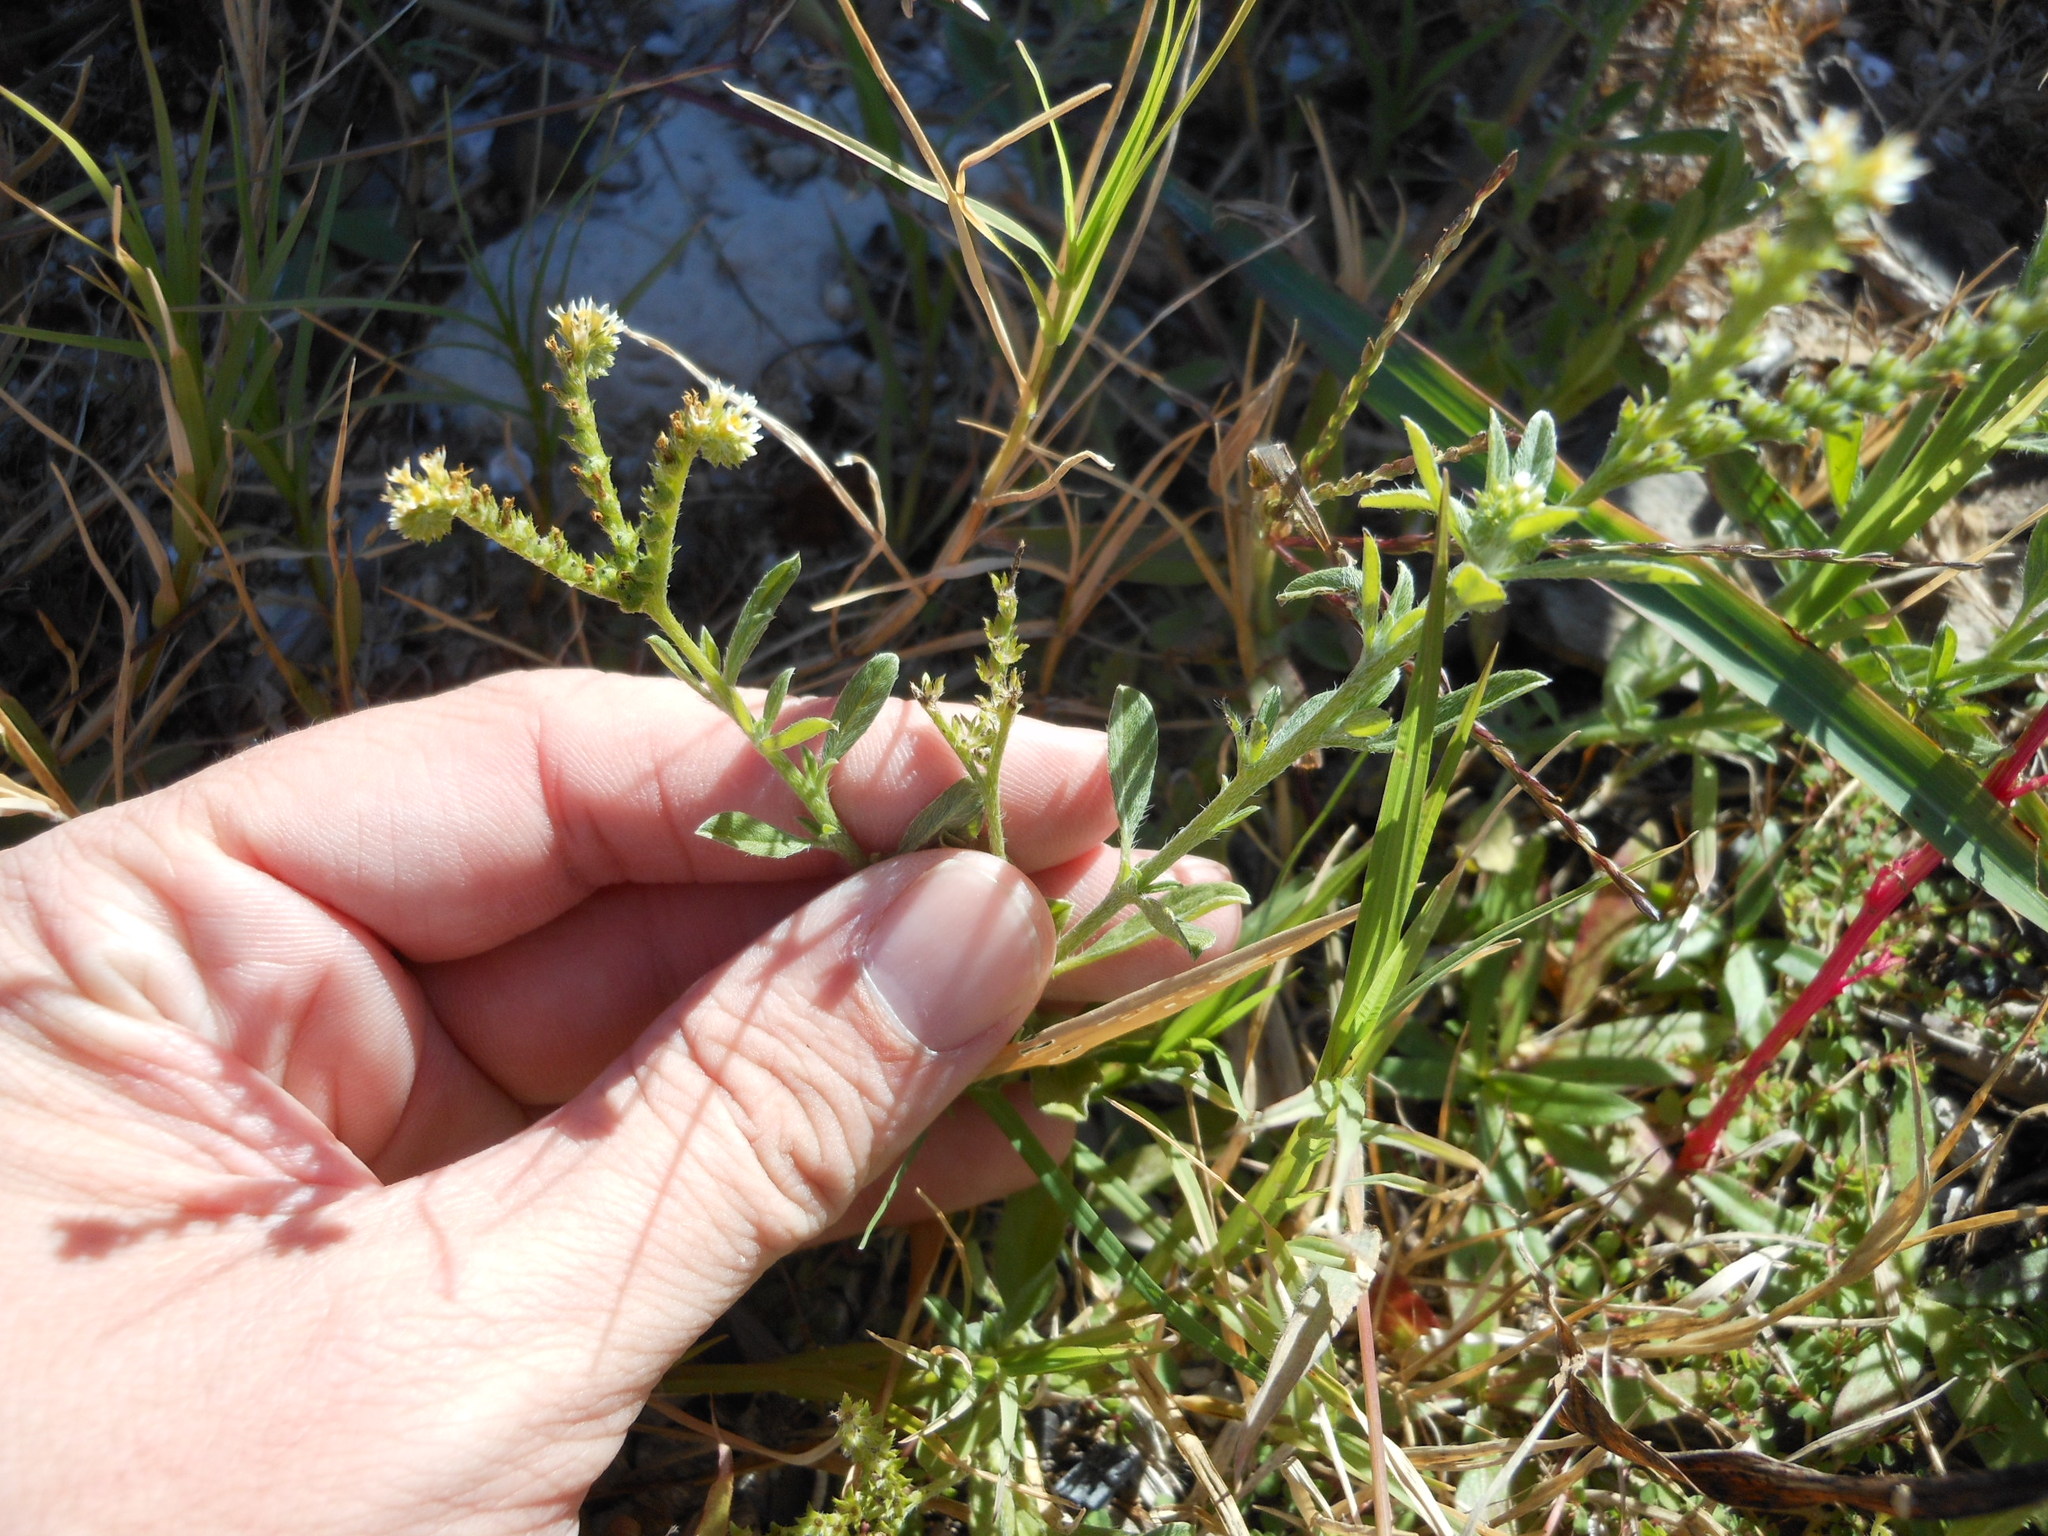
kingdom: Plantae
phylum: Tracheophyta
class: Magnoliopsida
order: Boraginales
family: Heliotropiaceae
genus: Euploca
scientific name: Euploca procumbens
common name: Fourspike heliotrope
